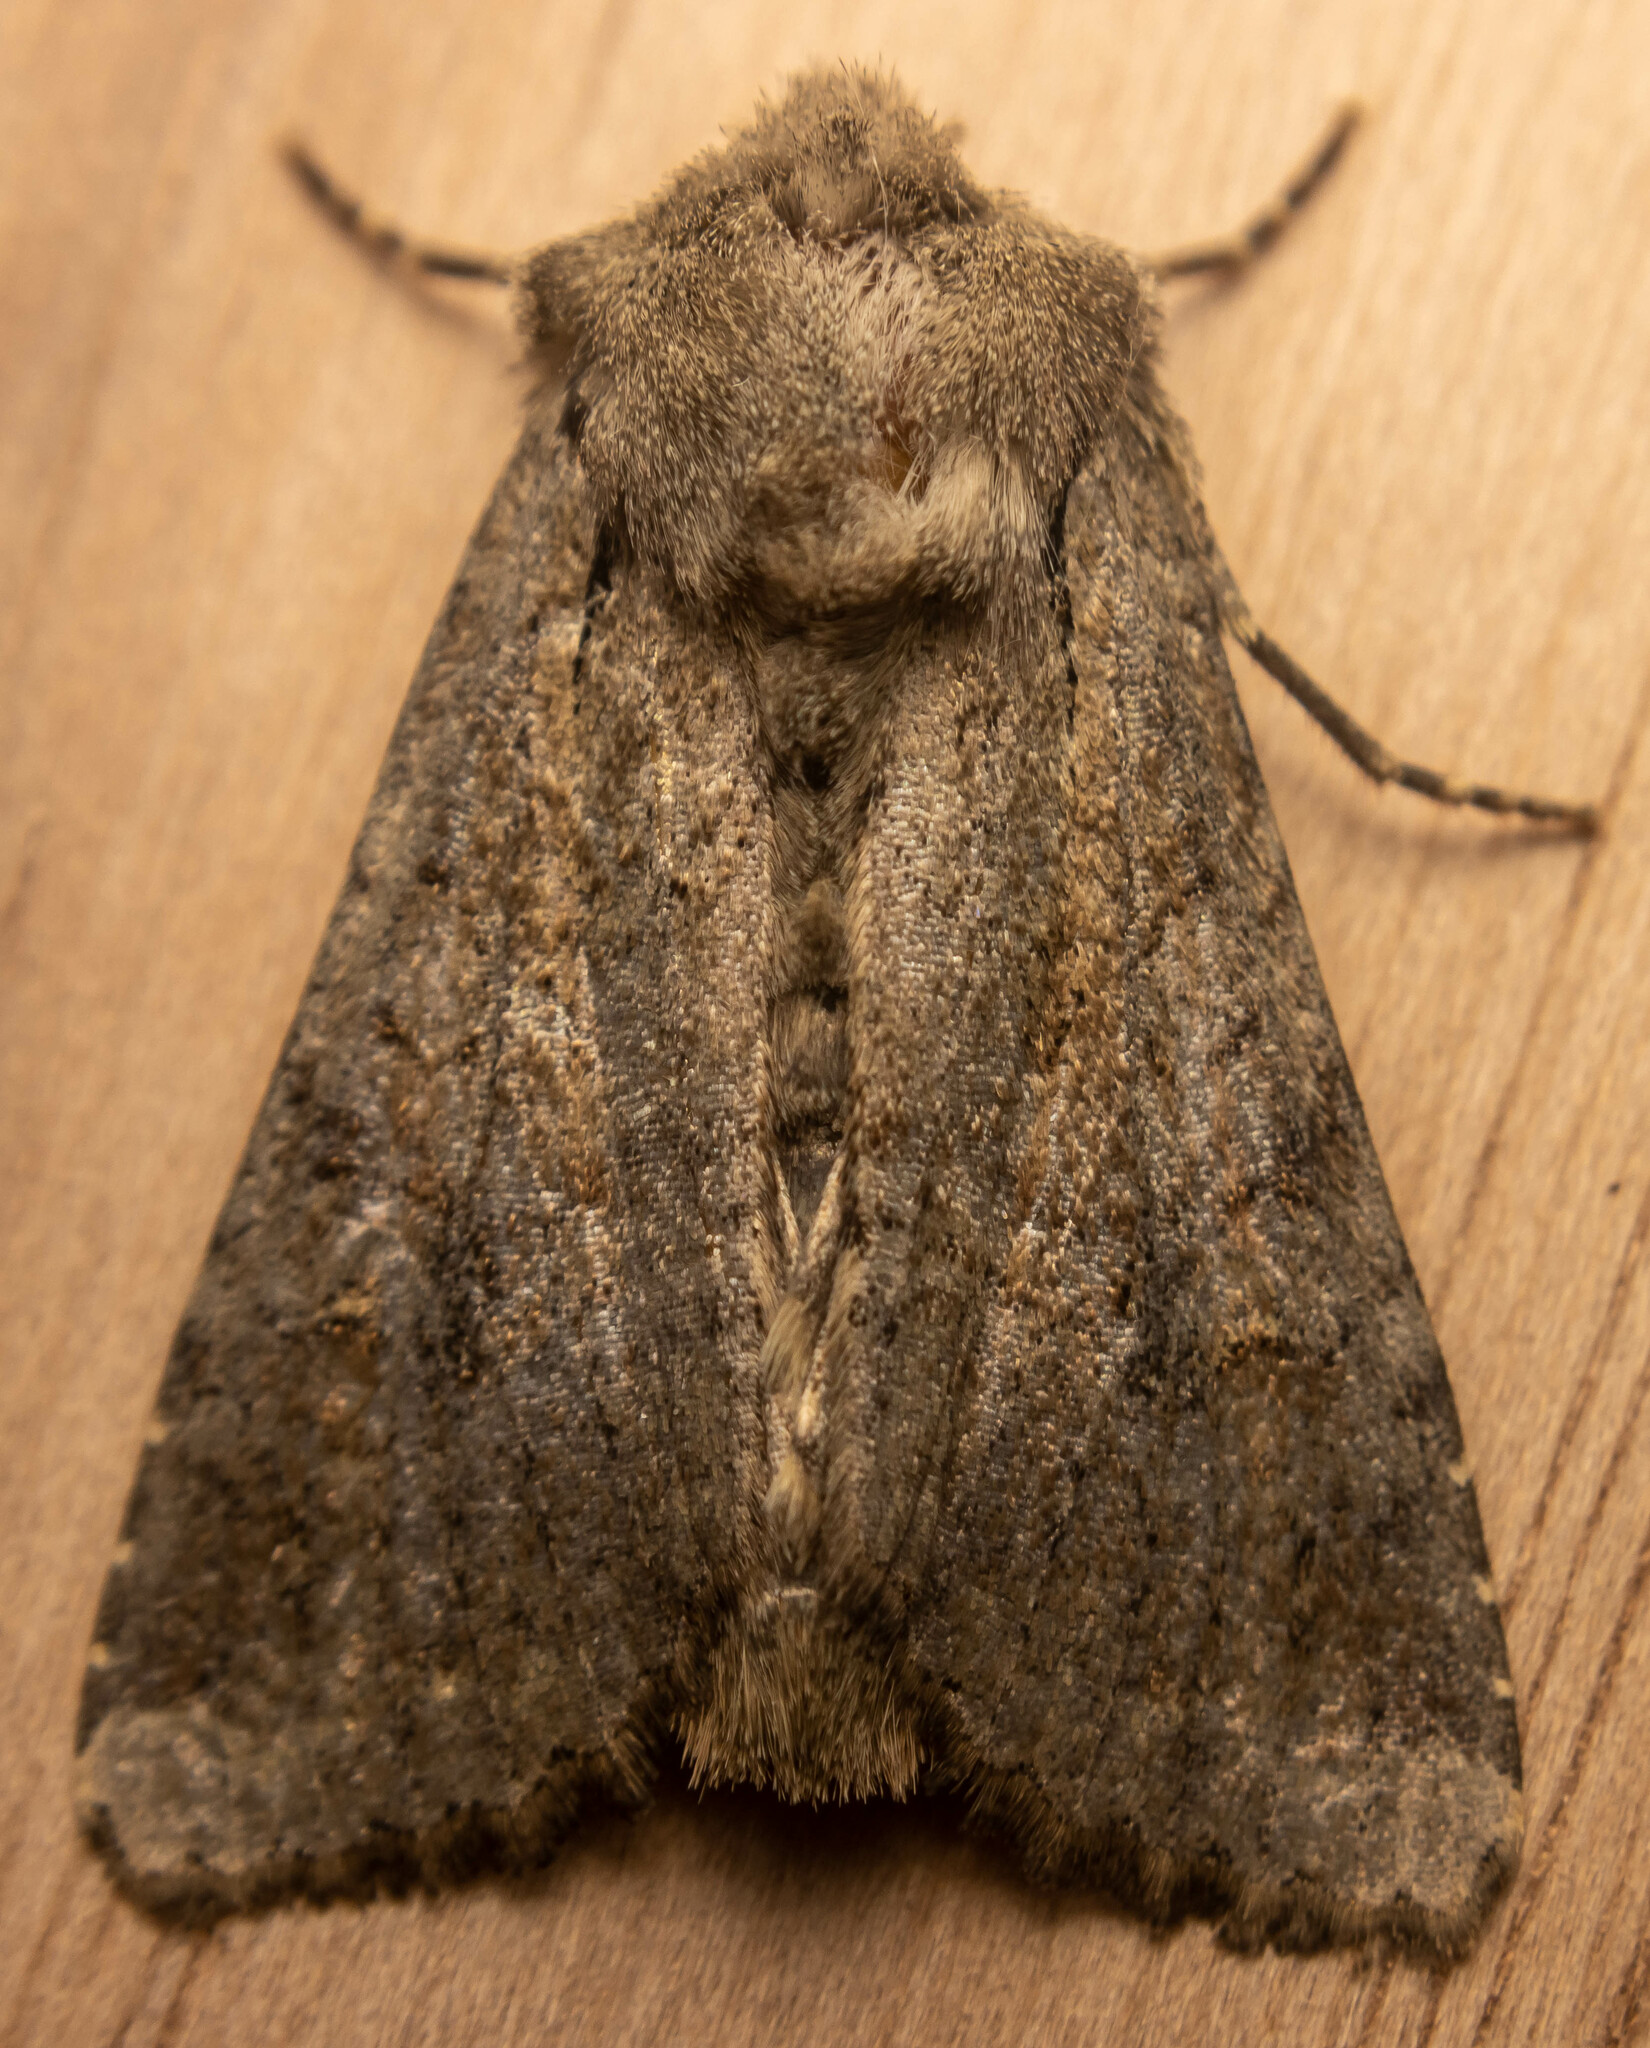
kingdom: Animalia
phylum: Arthropoda
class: Insecta
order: Lepidoptera
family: Noctuidae
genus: Apamea
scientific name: Apamea sordens
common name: Rustic shoulder-knot
